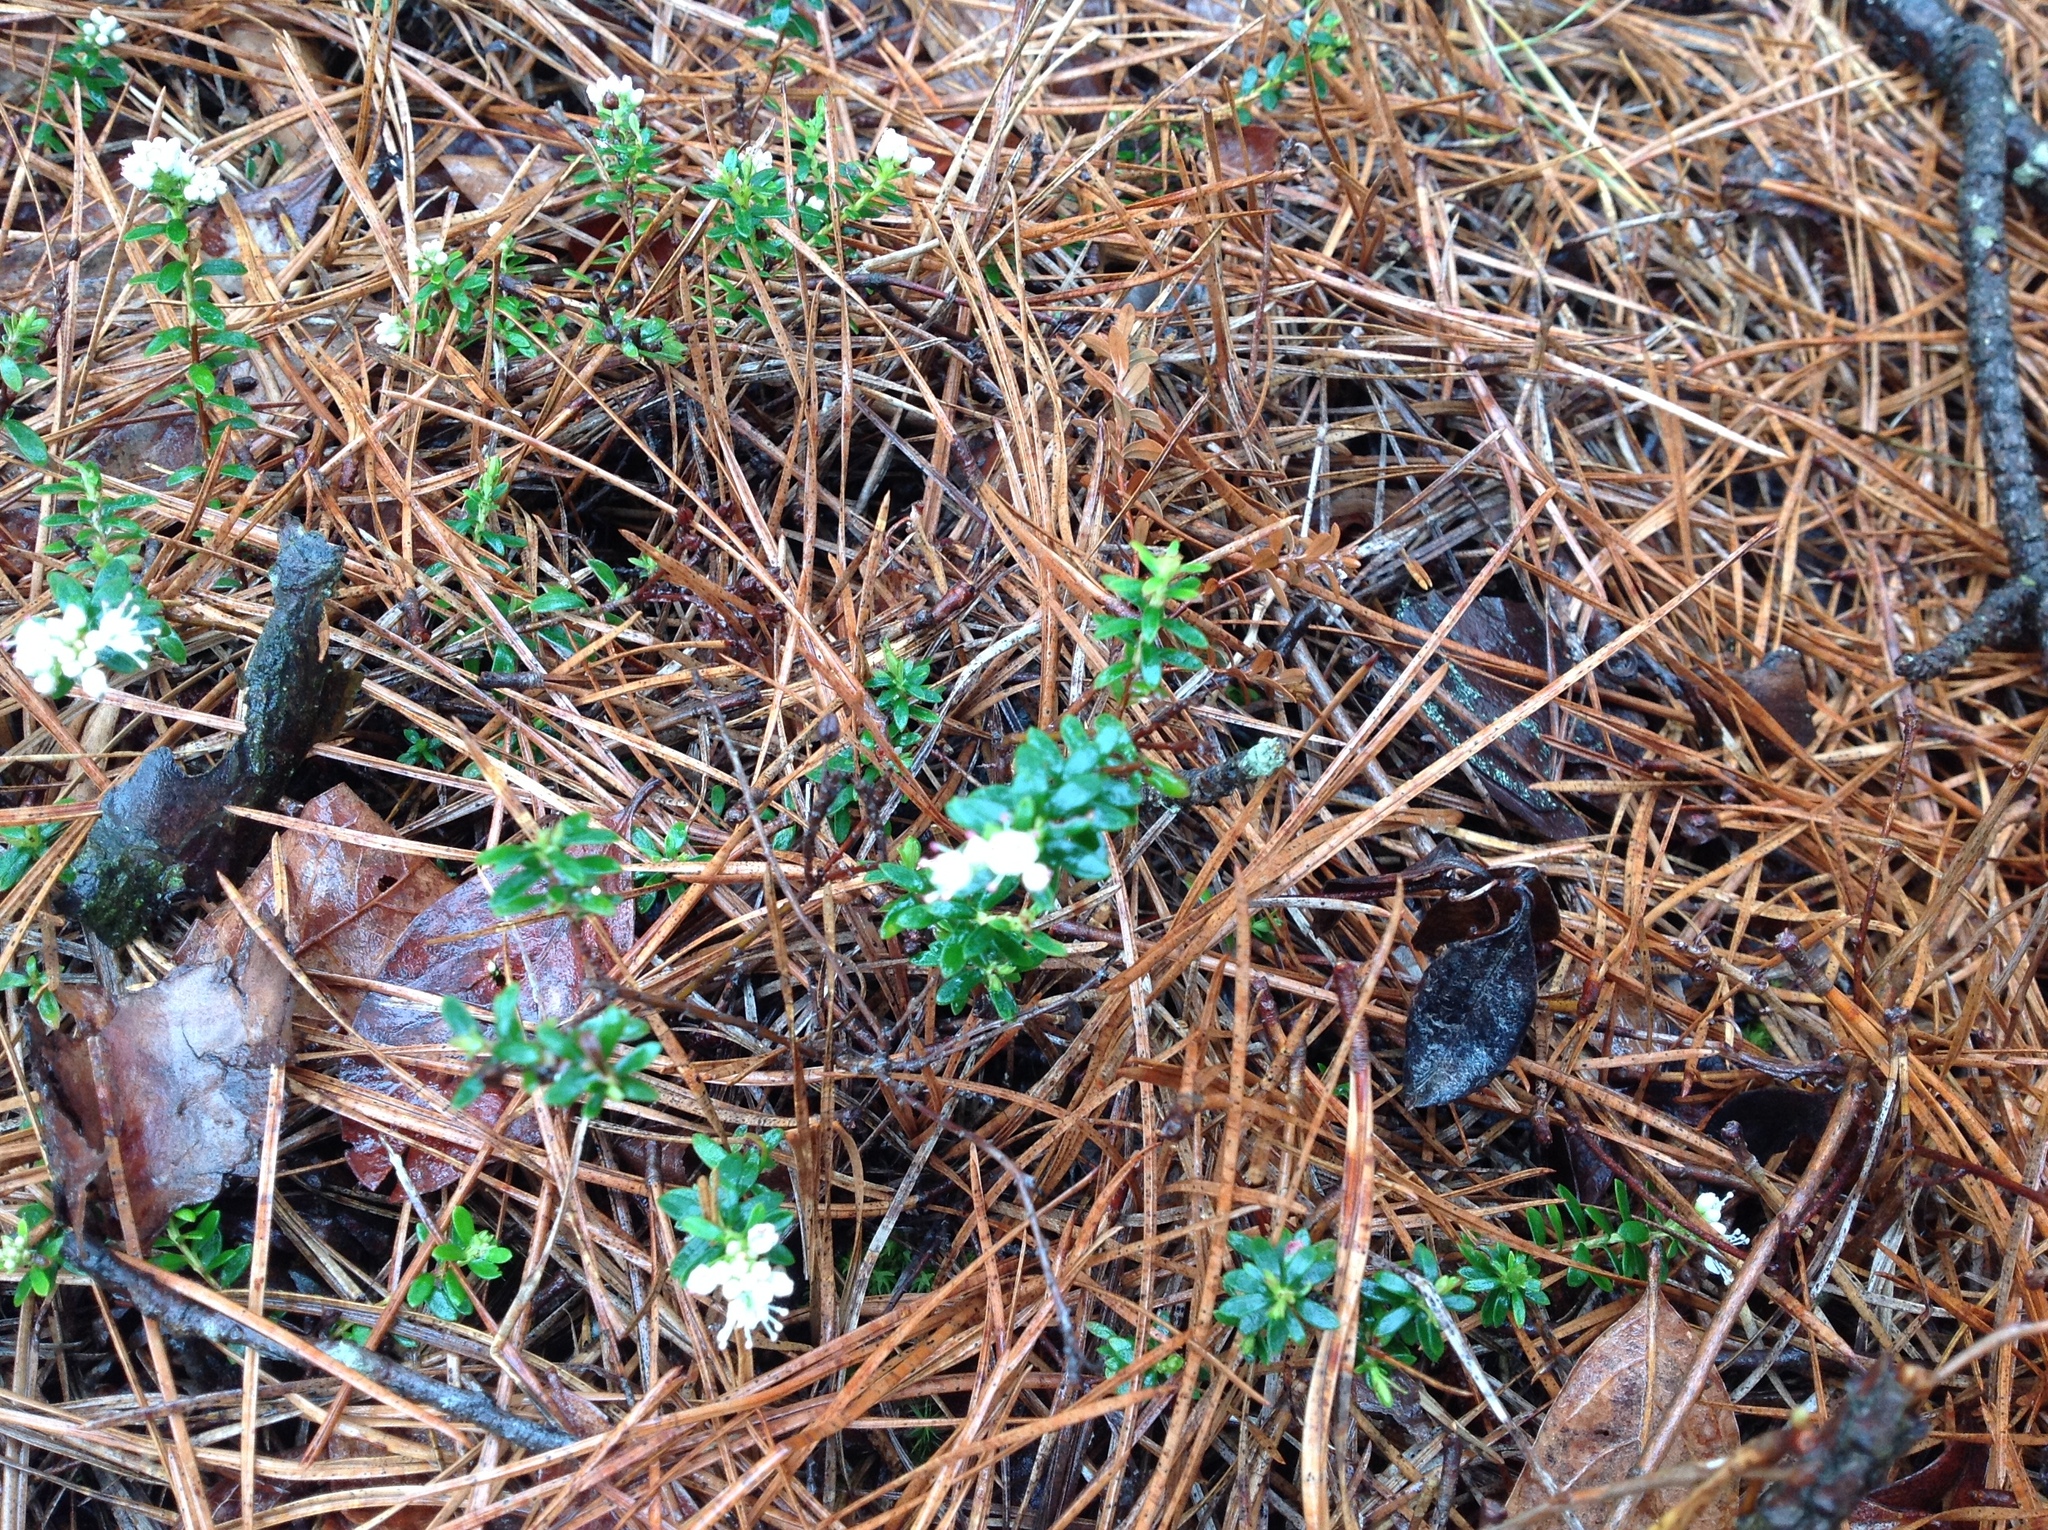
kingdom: Plantae
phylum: Tracheophyta
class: Magnoliopsida
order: Ericales
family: Ericaceae
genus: Kalmia
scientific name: Kalmia buxifolia
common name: Sandmyrtle
